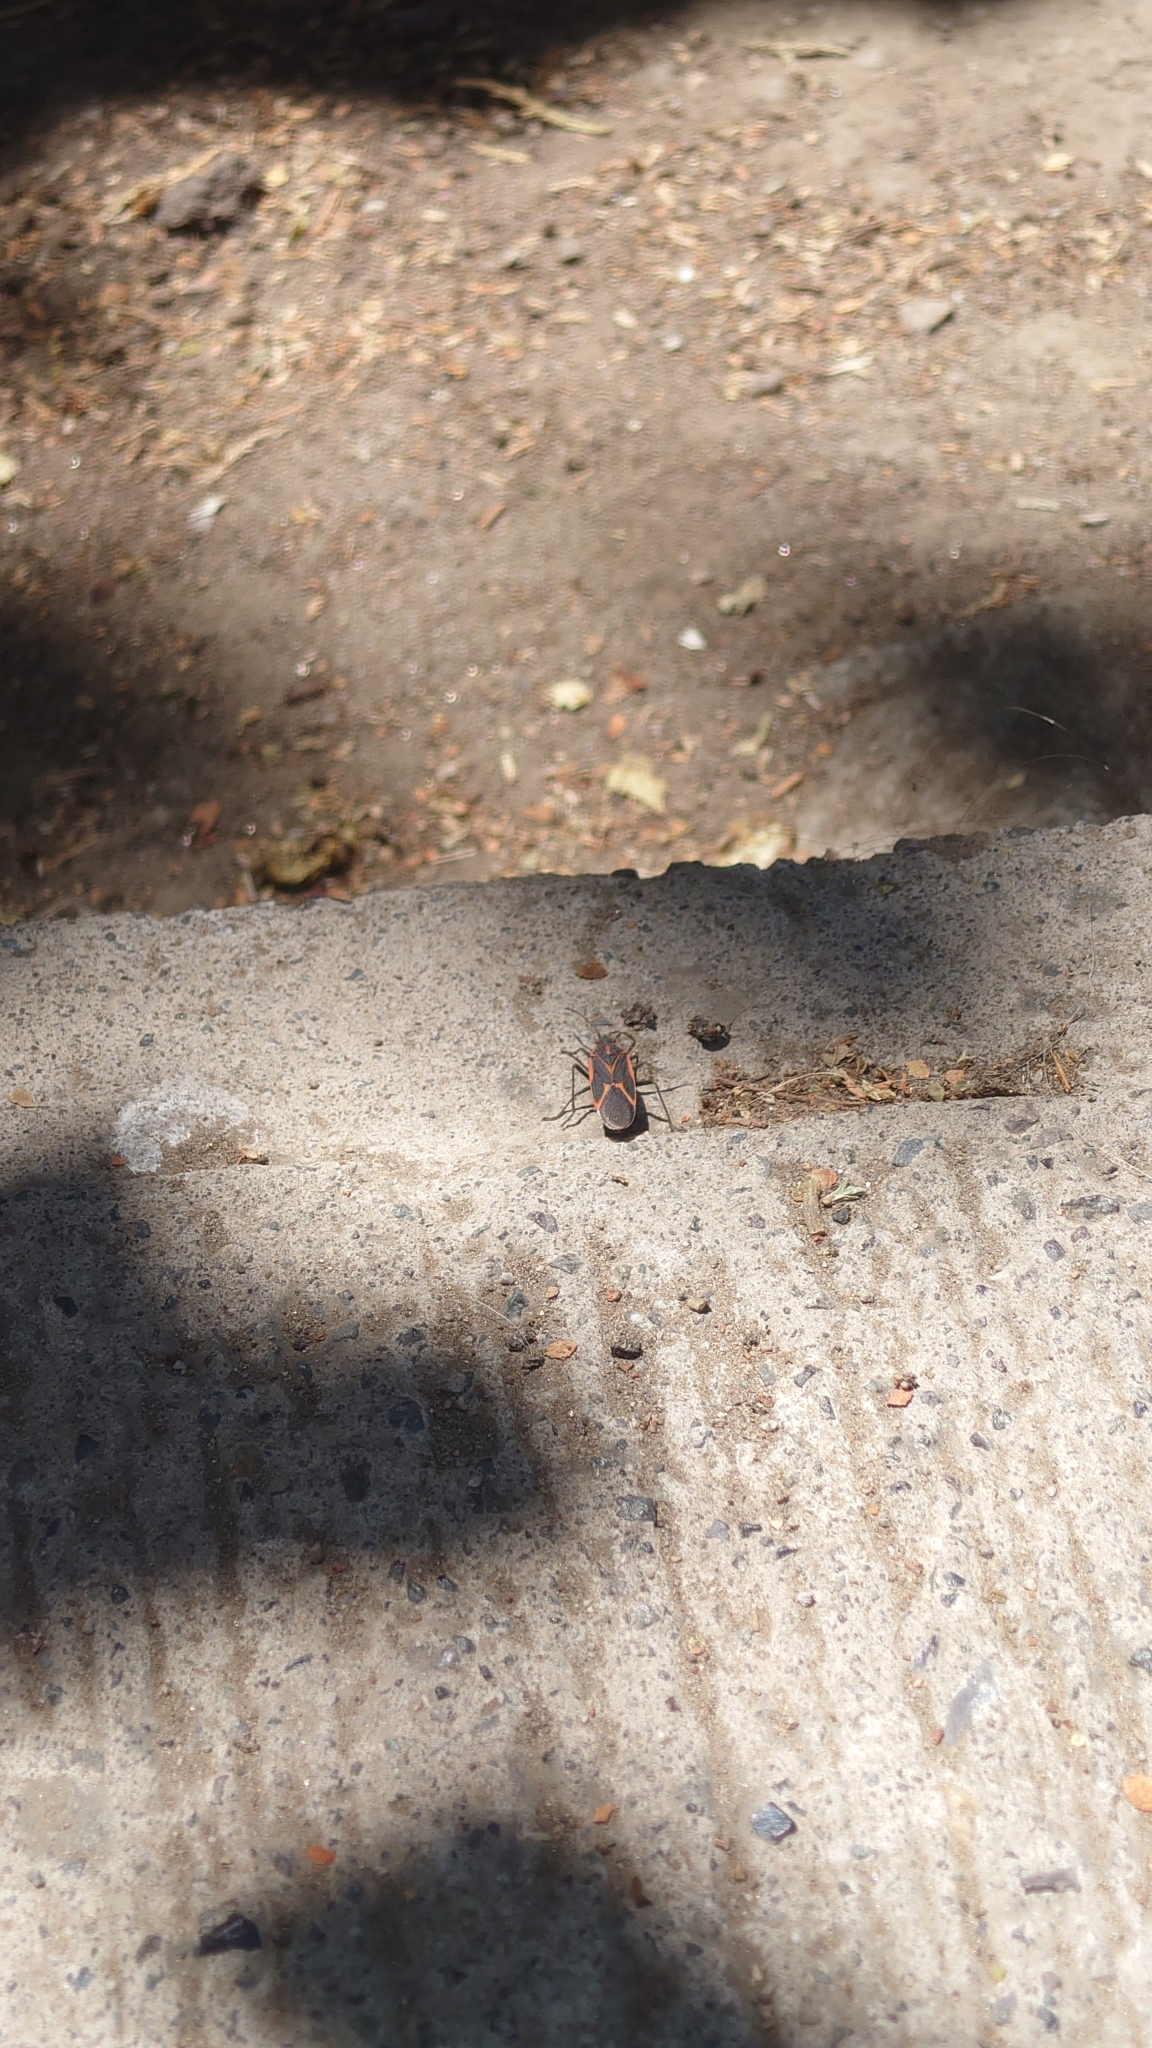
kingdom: Animalia
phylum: Arthropoda
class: Insecta
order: Hemiptera
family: Rhopalidae
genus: Boisea
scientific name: Boisea trivittata
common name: Boxelder bug
